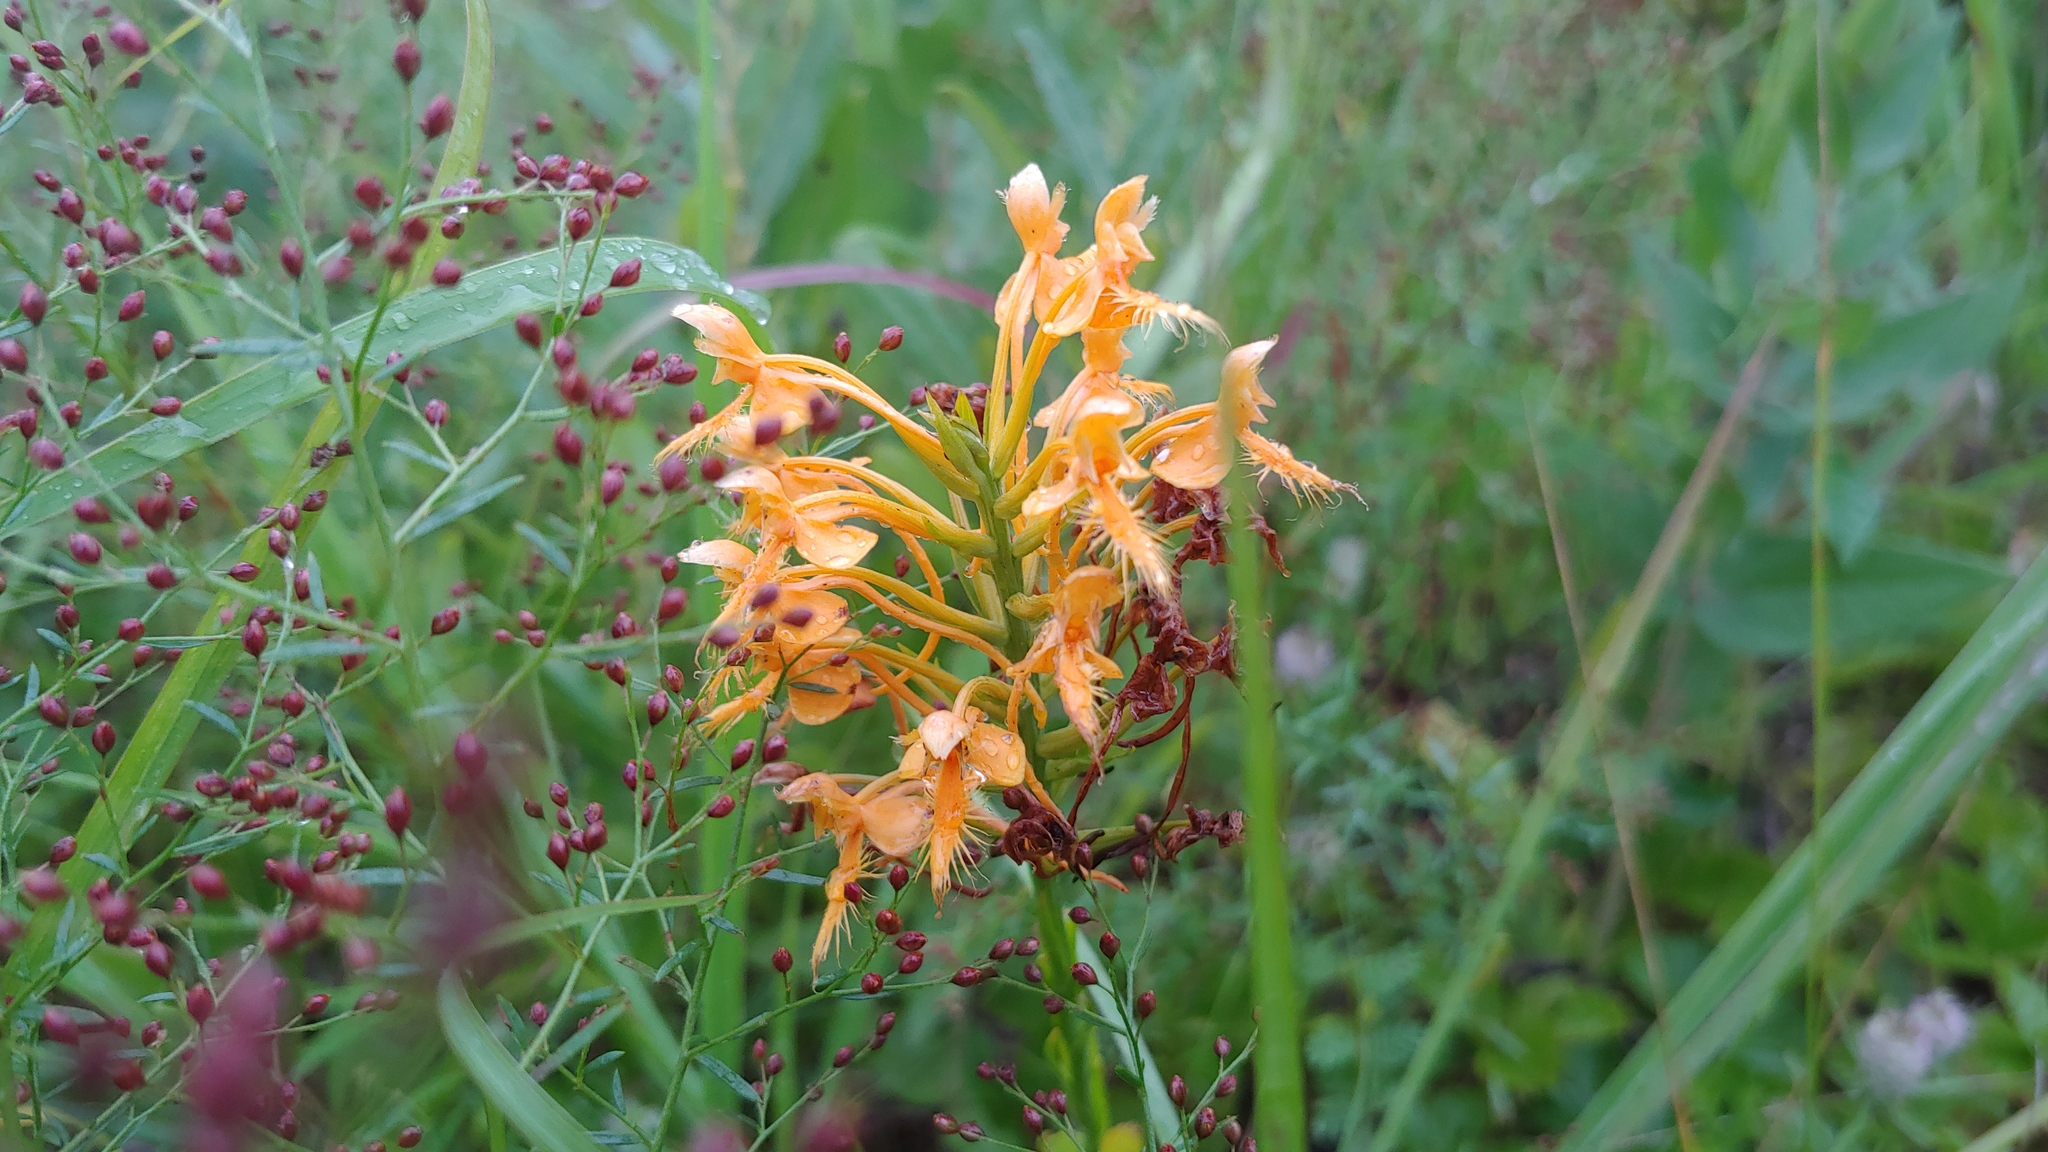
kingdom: Plantae
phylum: Tracheophyta
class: Liliopsida
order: Asparagales
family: Orchidaceae
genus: Platanthera
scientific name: Platanthera ciliaris
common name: Yellow fringed orchid
